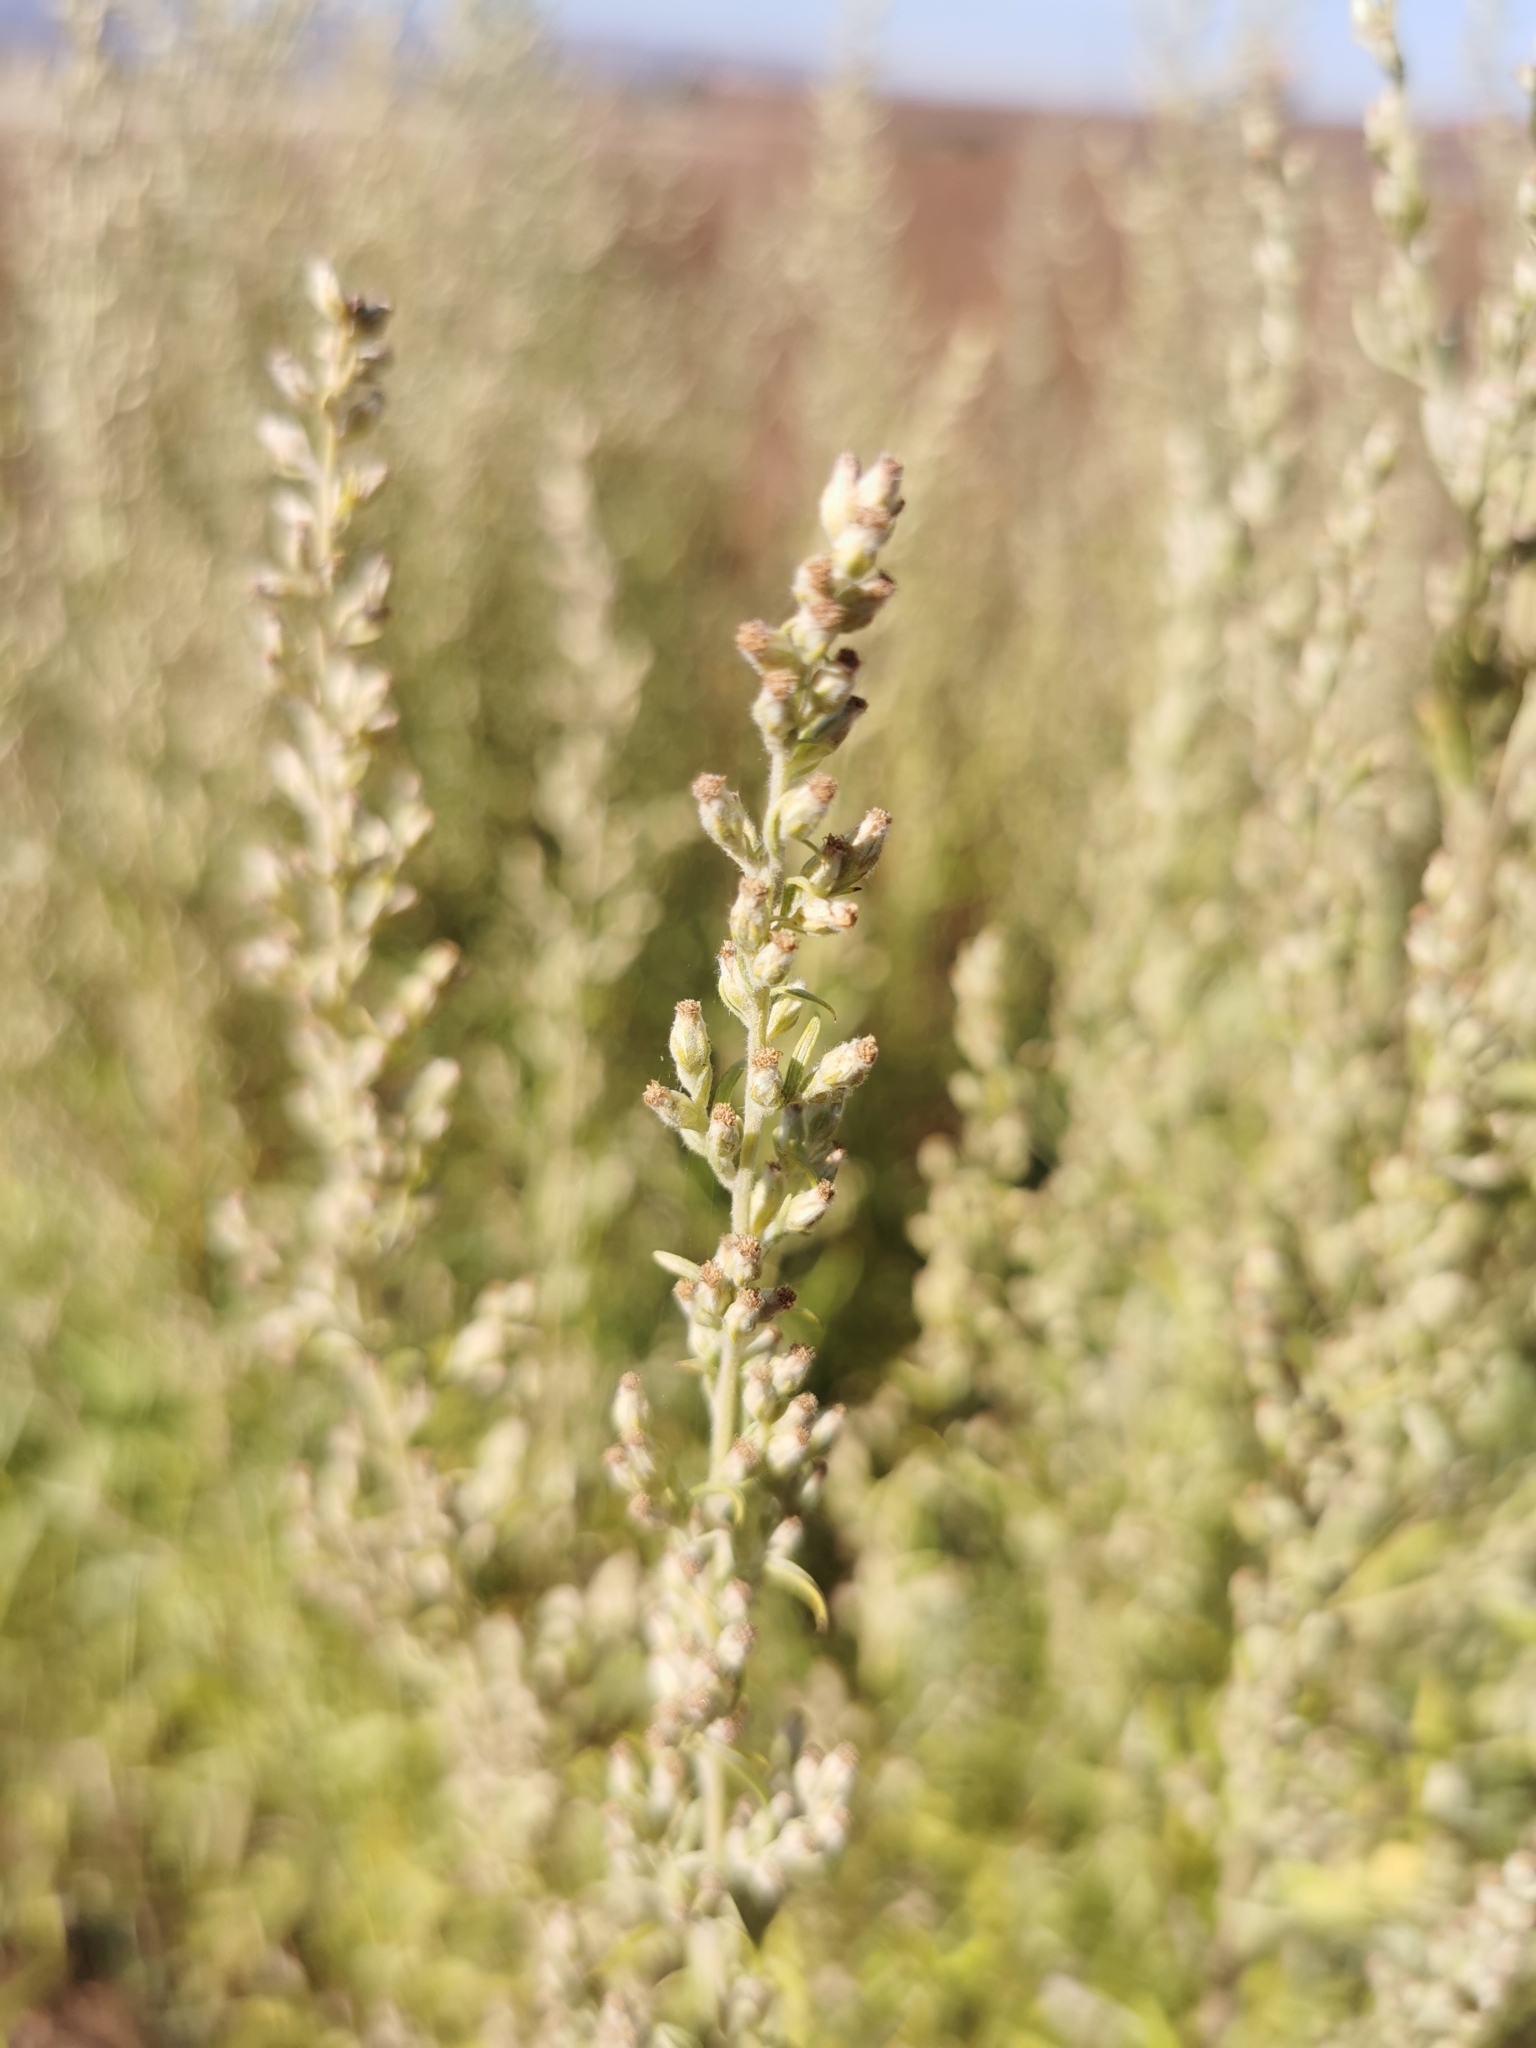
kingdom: Plantae
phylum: Tracheophyta
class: Magnoliopsida
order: Asterales
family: Asteraceae
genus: Artemisia
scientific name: Artemisia ludoviciana
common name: Western mugwort
